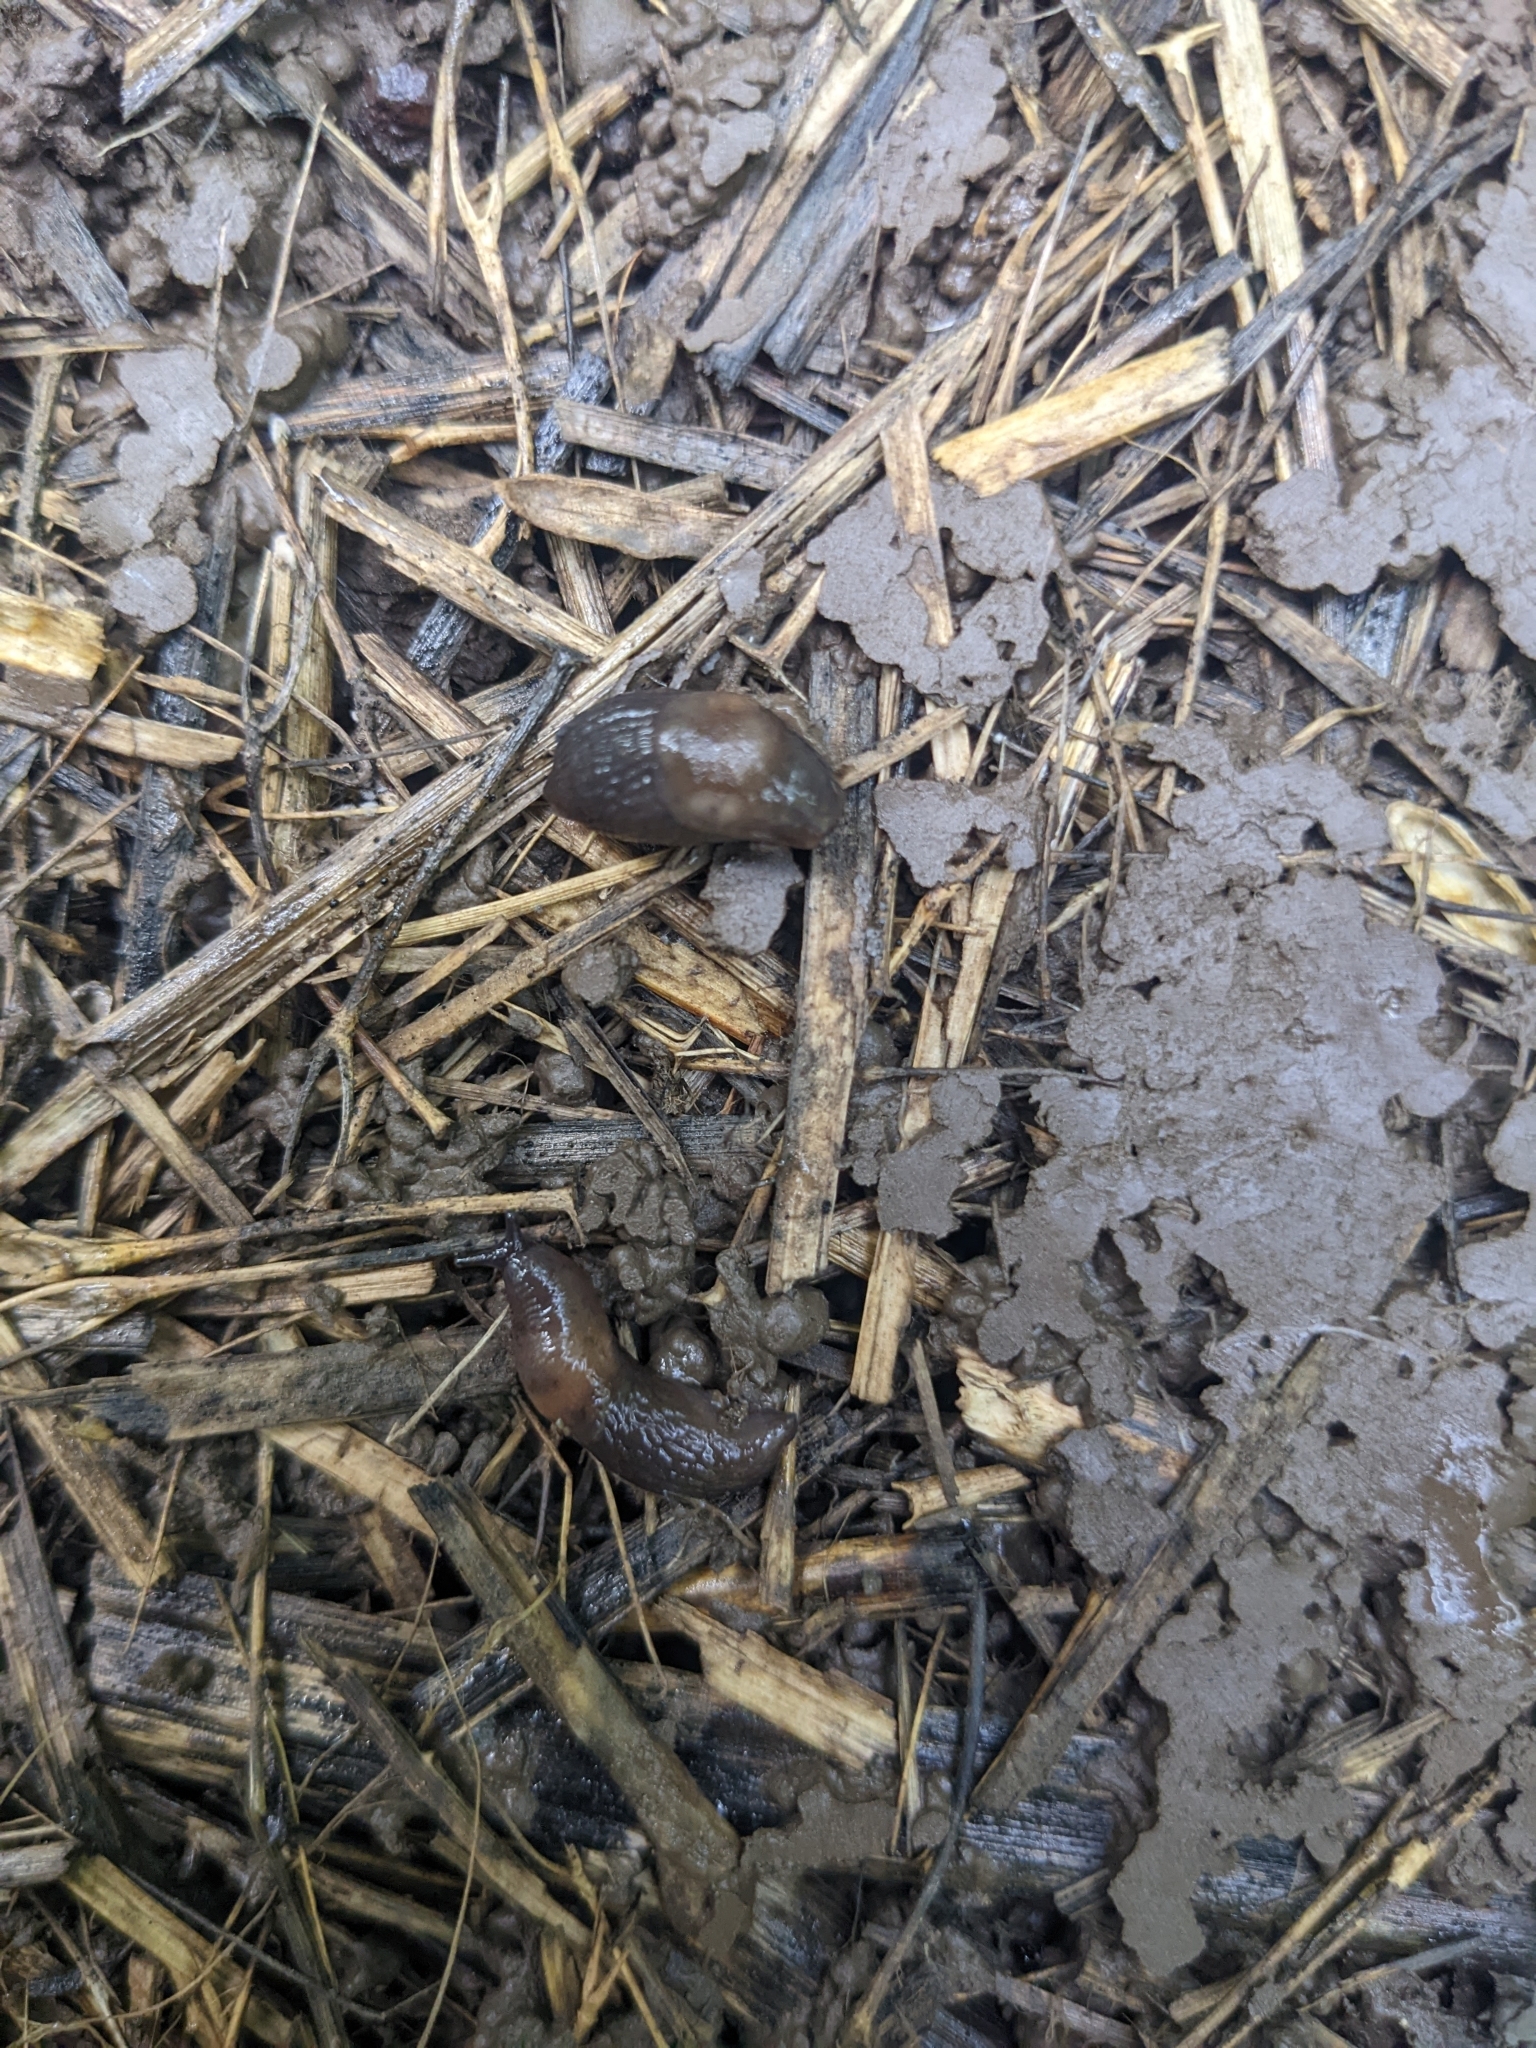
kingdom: Animalia
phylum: Mollusca
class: Gastropoda
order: Stylommatophora
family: Agriolimacidae
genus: Deroceras
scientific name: Deroceras invadens
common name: Caruana's slug
